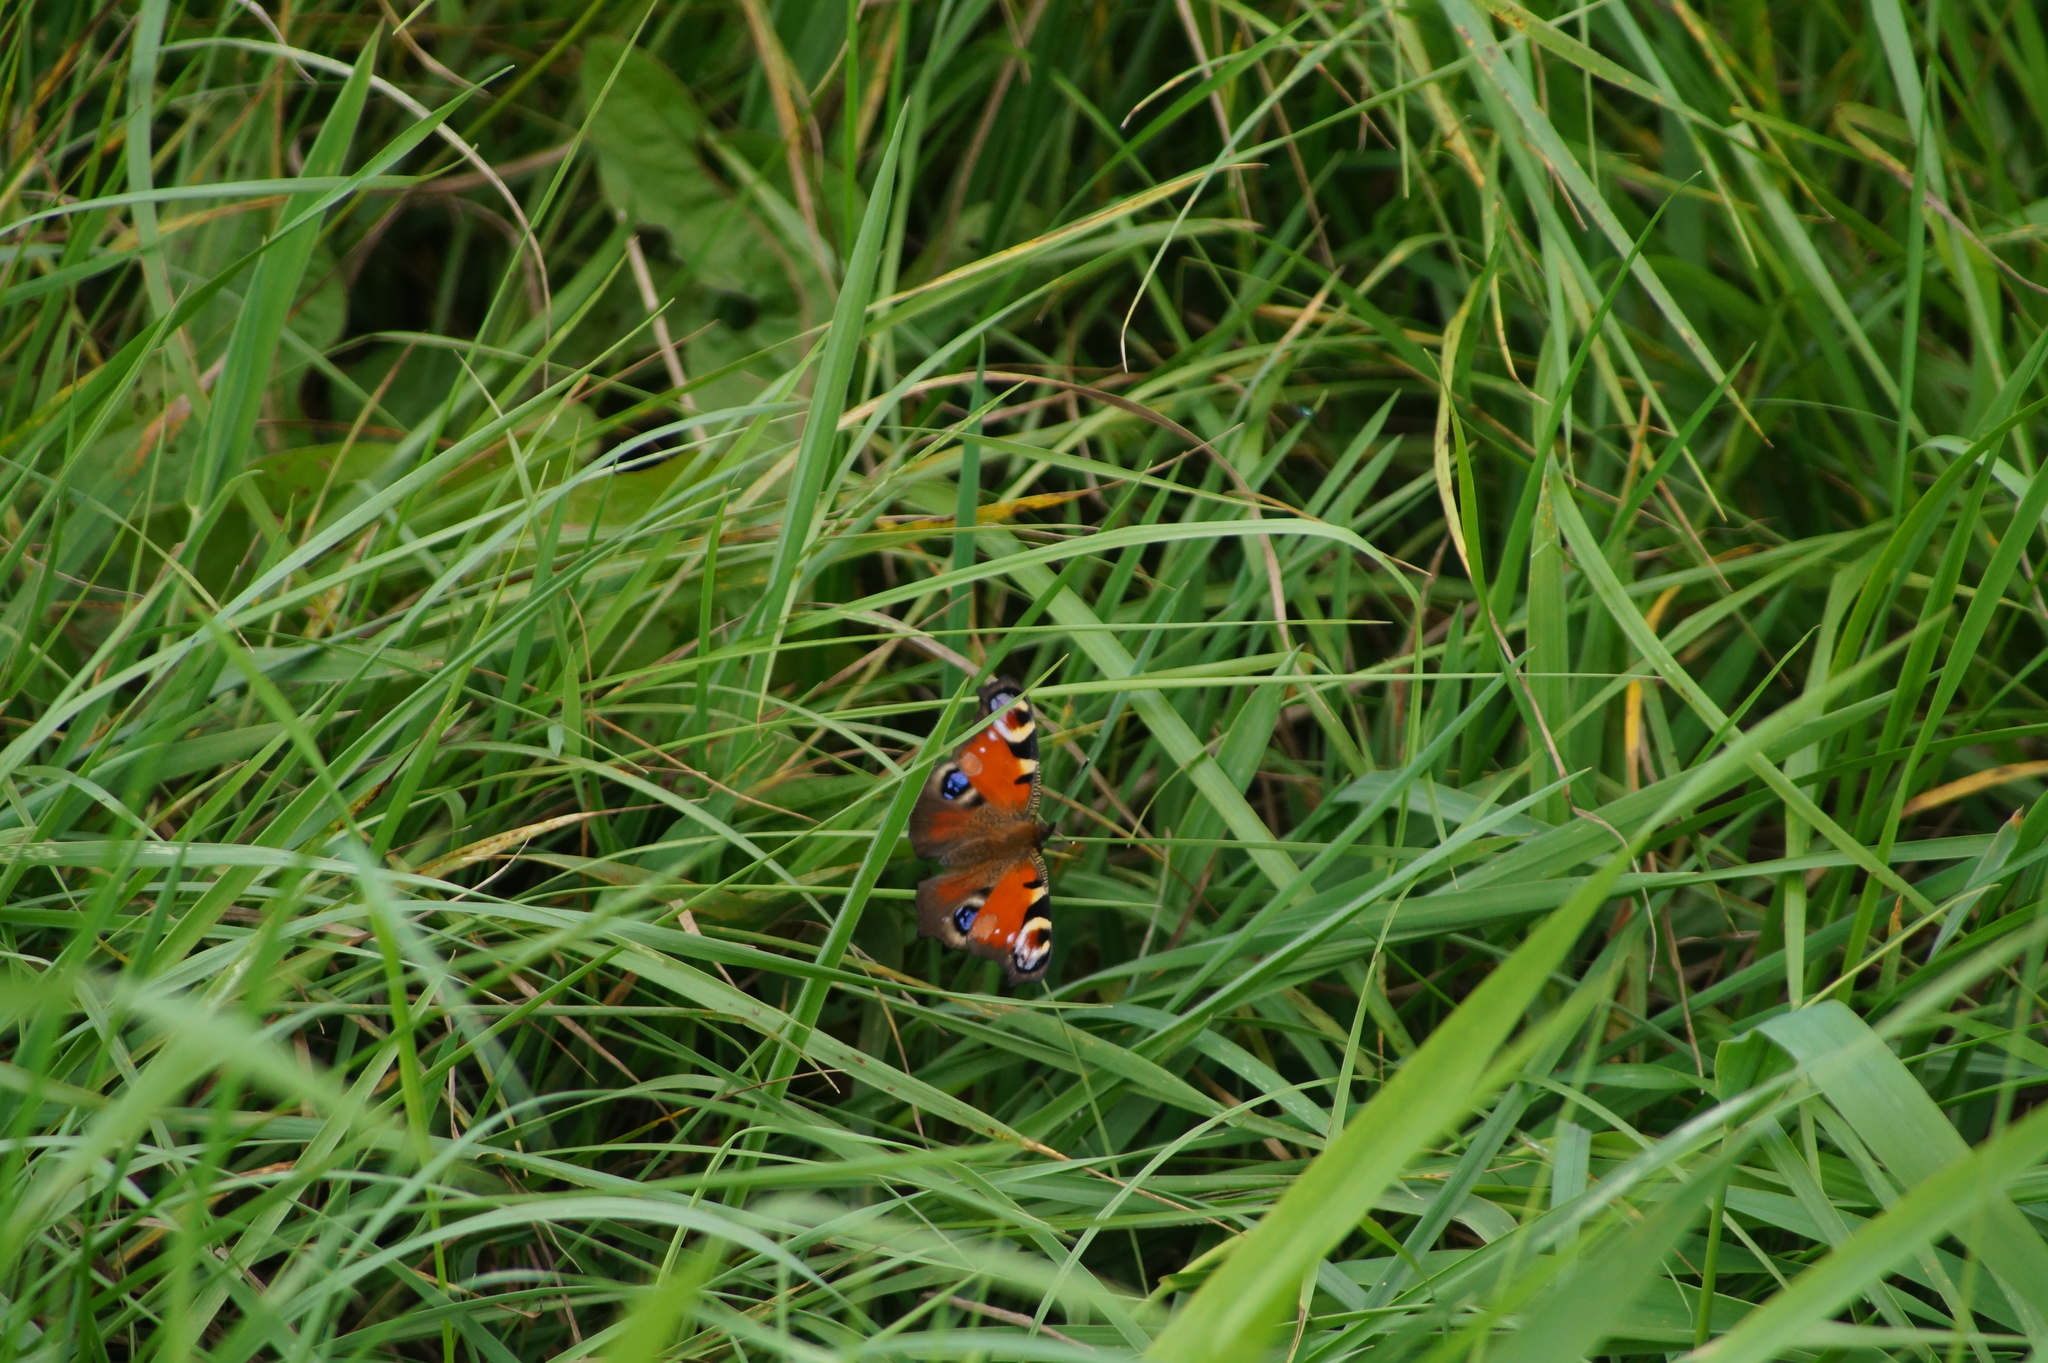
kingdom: Animalia
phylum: Arthropoda
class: Insecta
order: Lepidoptera
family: Nymphalidae
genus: Aglais
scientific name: Aglais io
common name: Peacock
